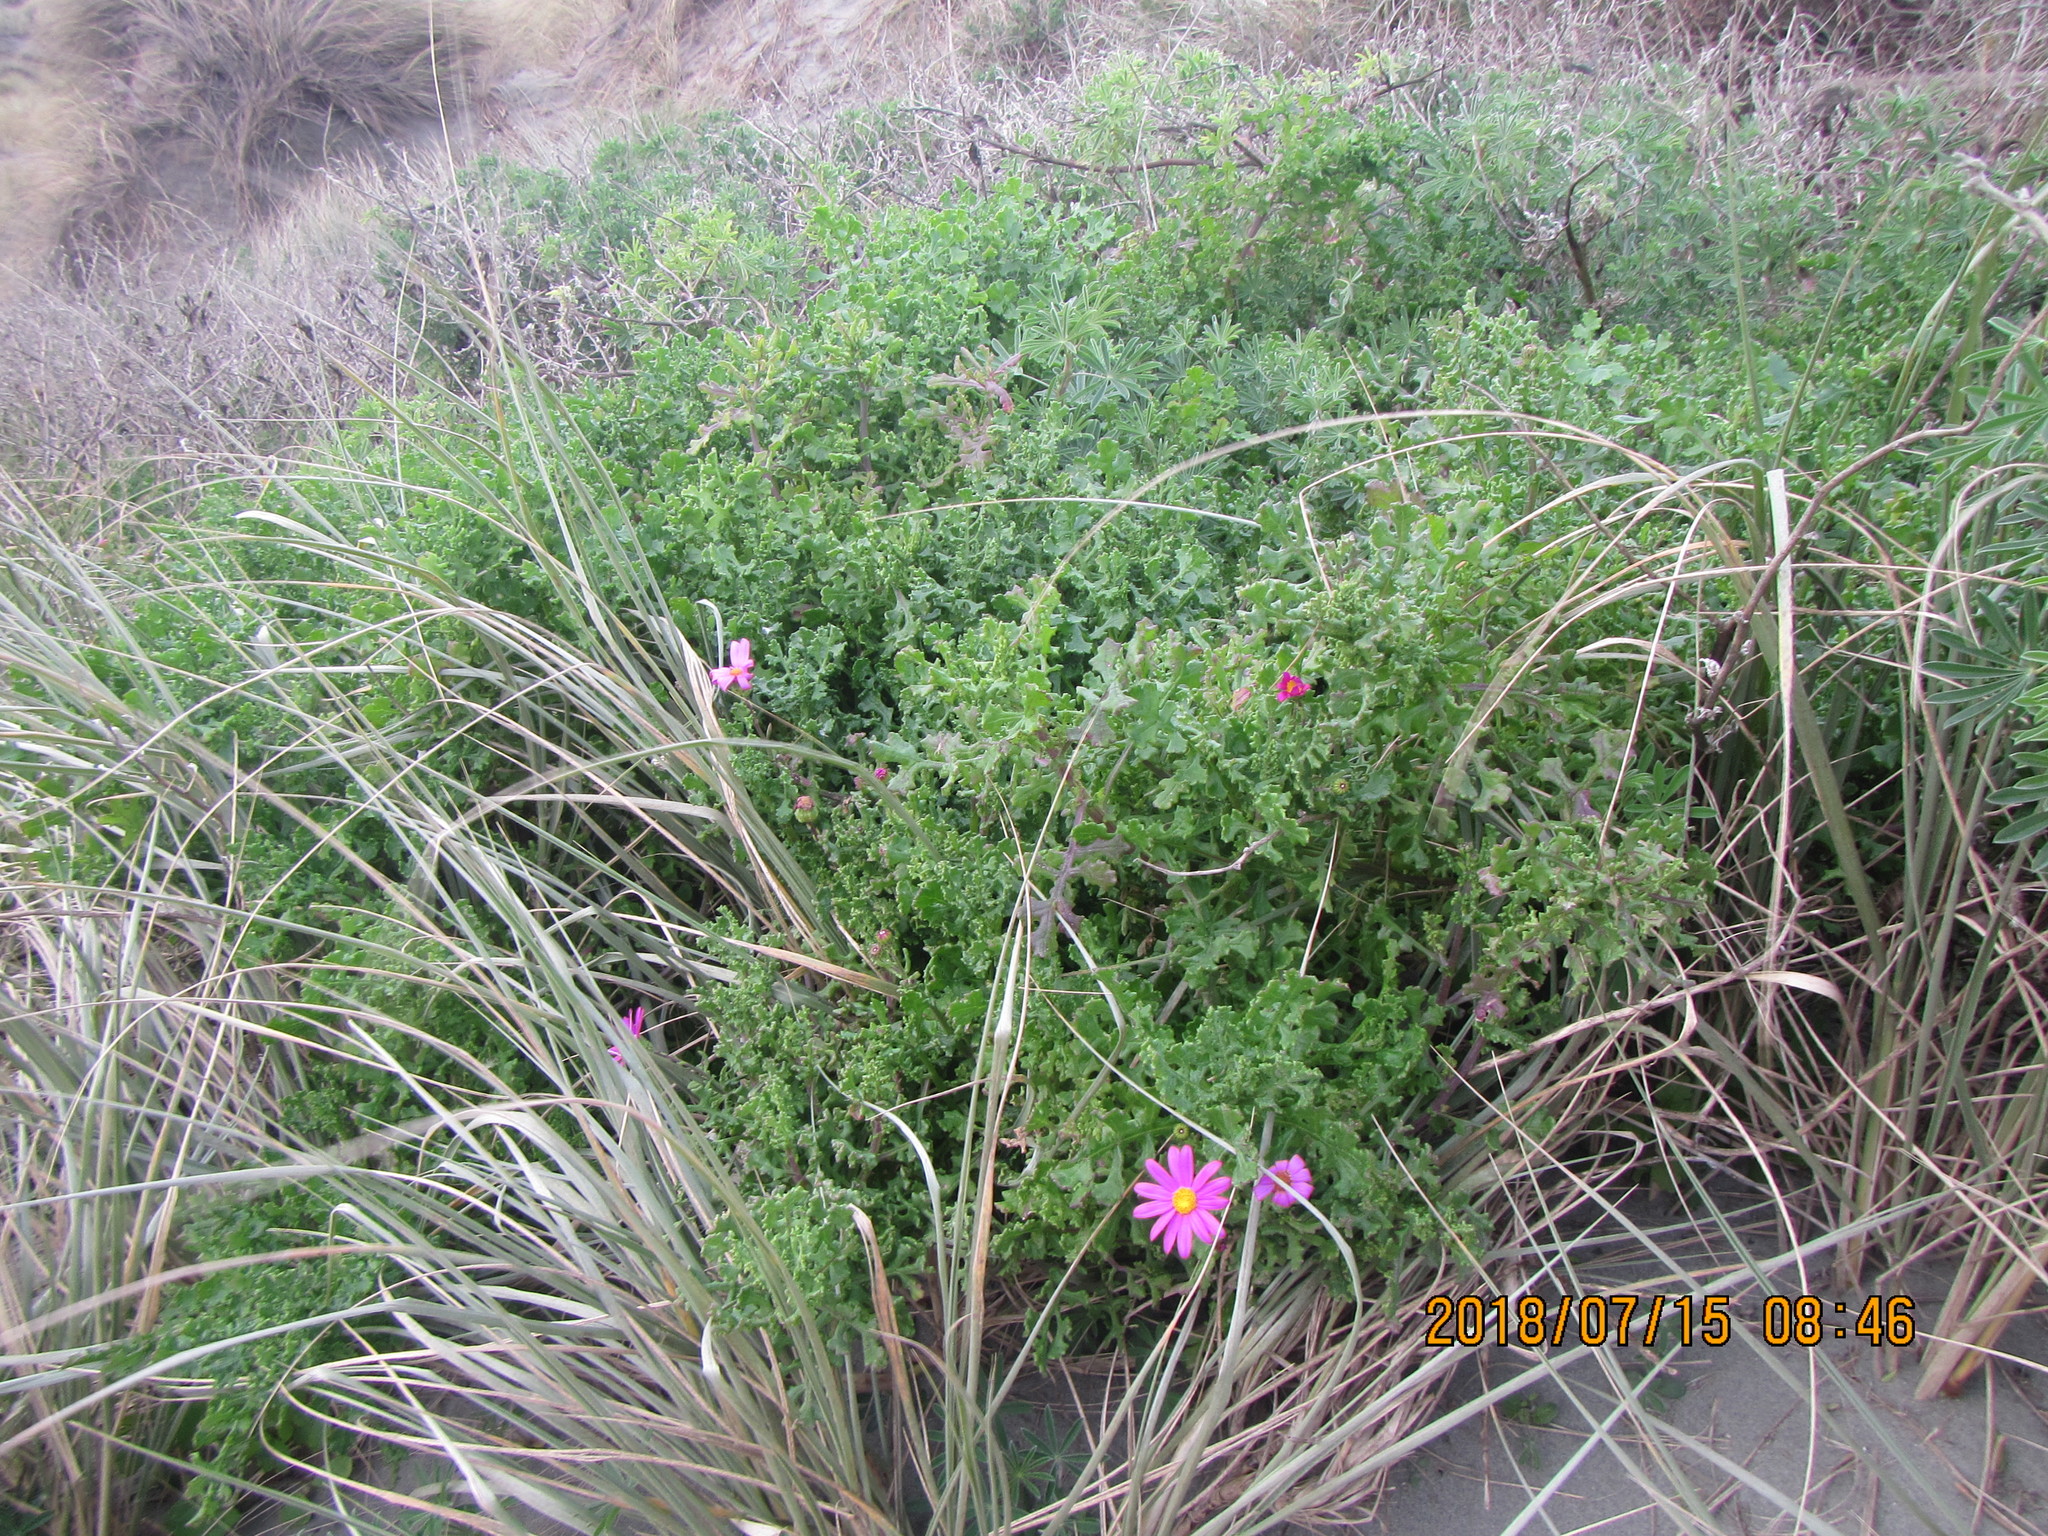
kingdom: Plantae
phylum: Tracheophyta
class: Magnoliopsida
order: Asterales
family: Asteraceae
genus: Senecio
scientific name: Senecio elegans
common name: Purple groundsel
